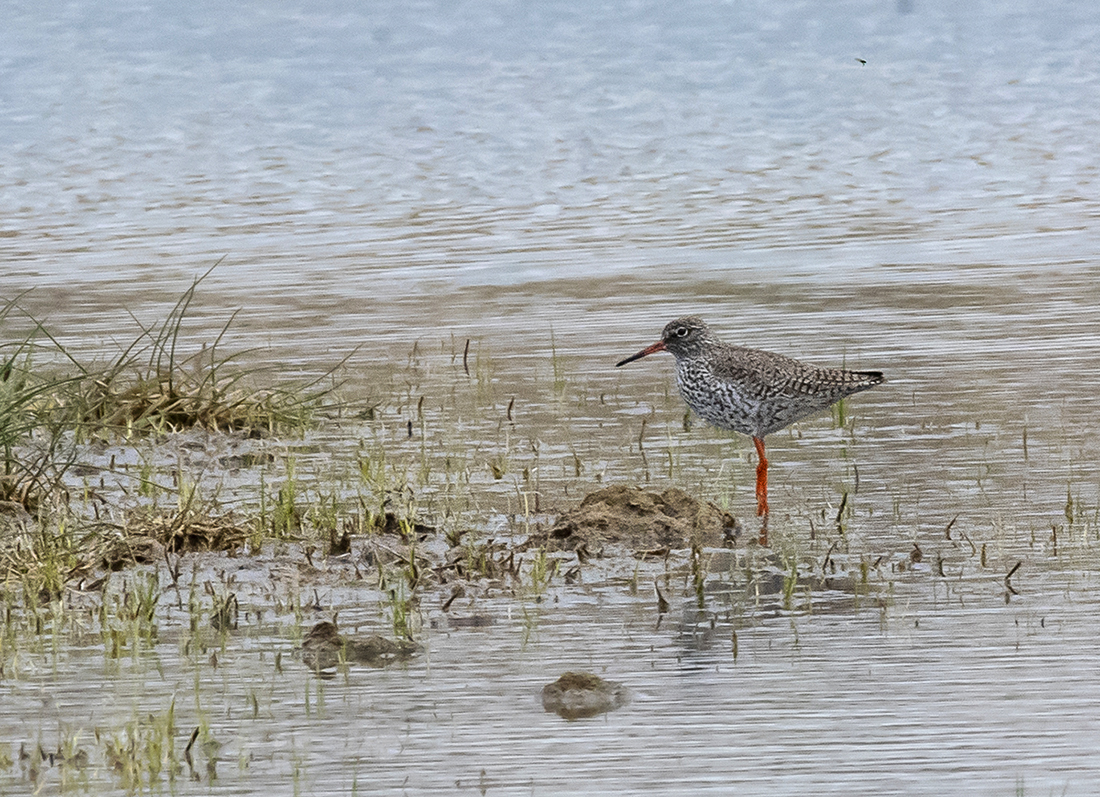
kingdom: Animalia
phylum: Chordata
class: Aves
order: Charadriiformes
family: Scolopacidae
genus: Tringa
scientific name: Tringa totanus
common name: Common redshank
